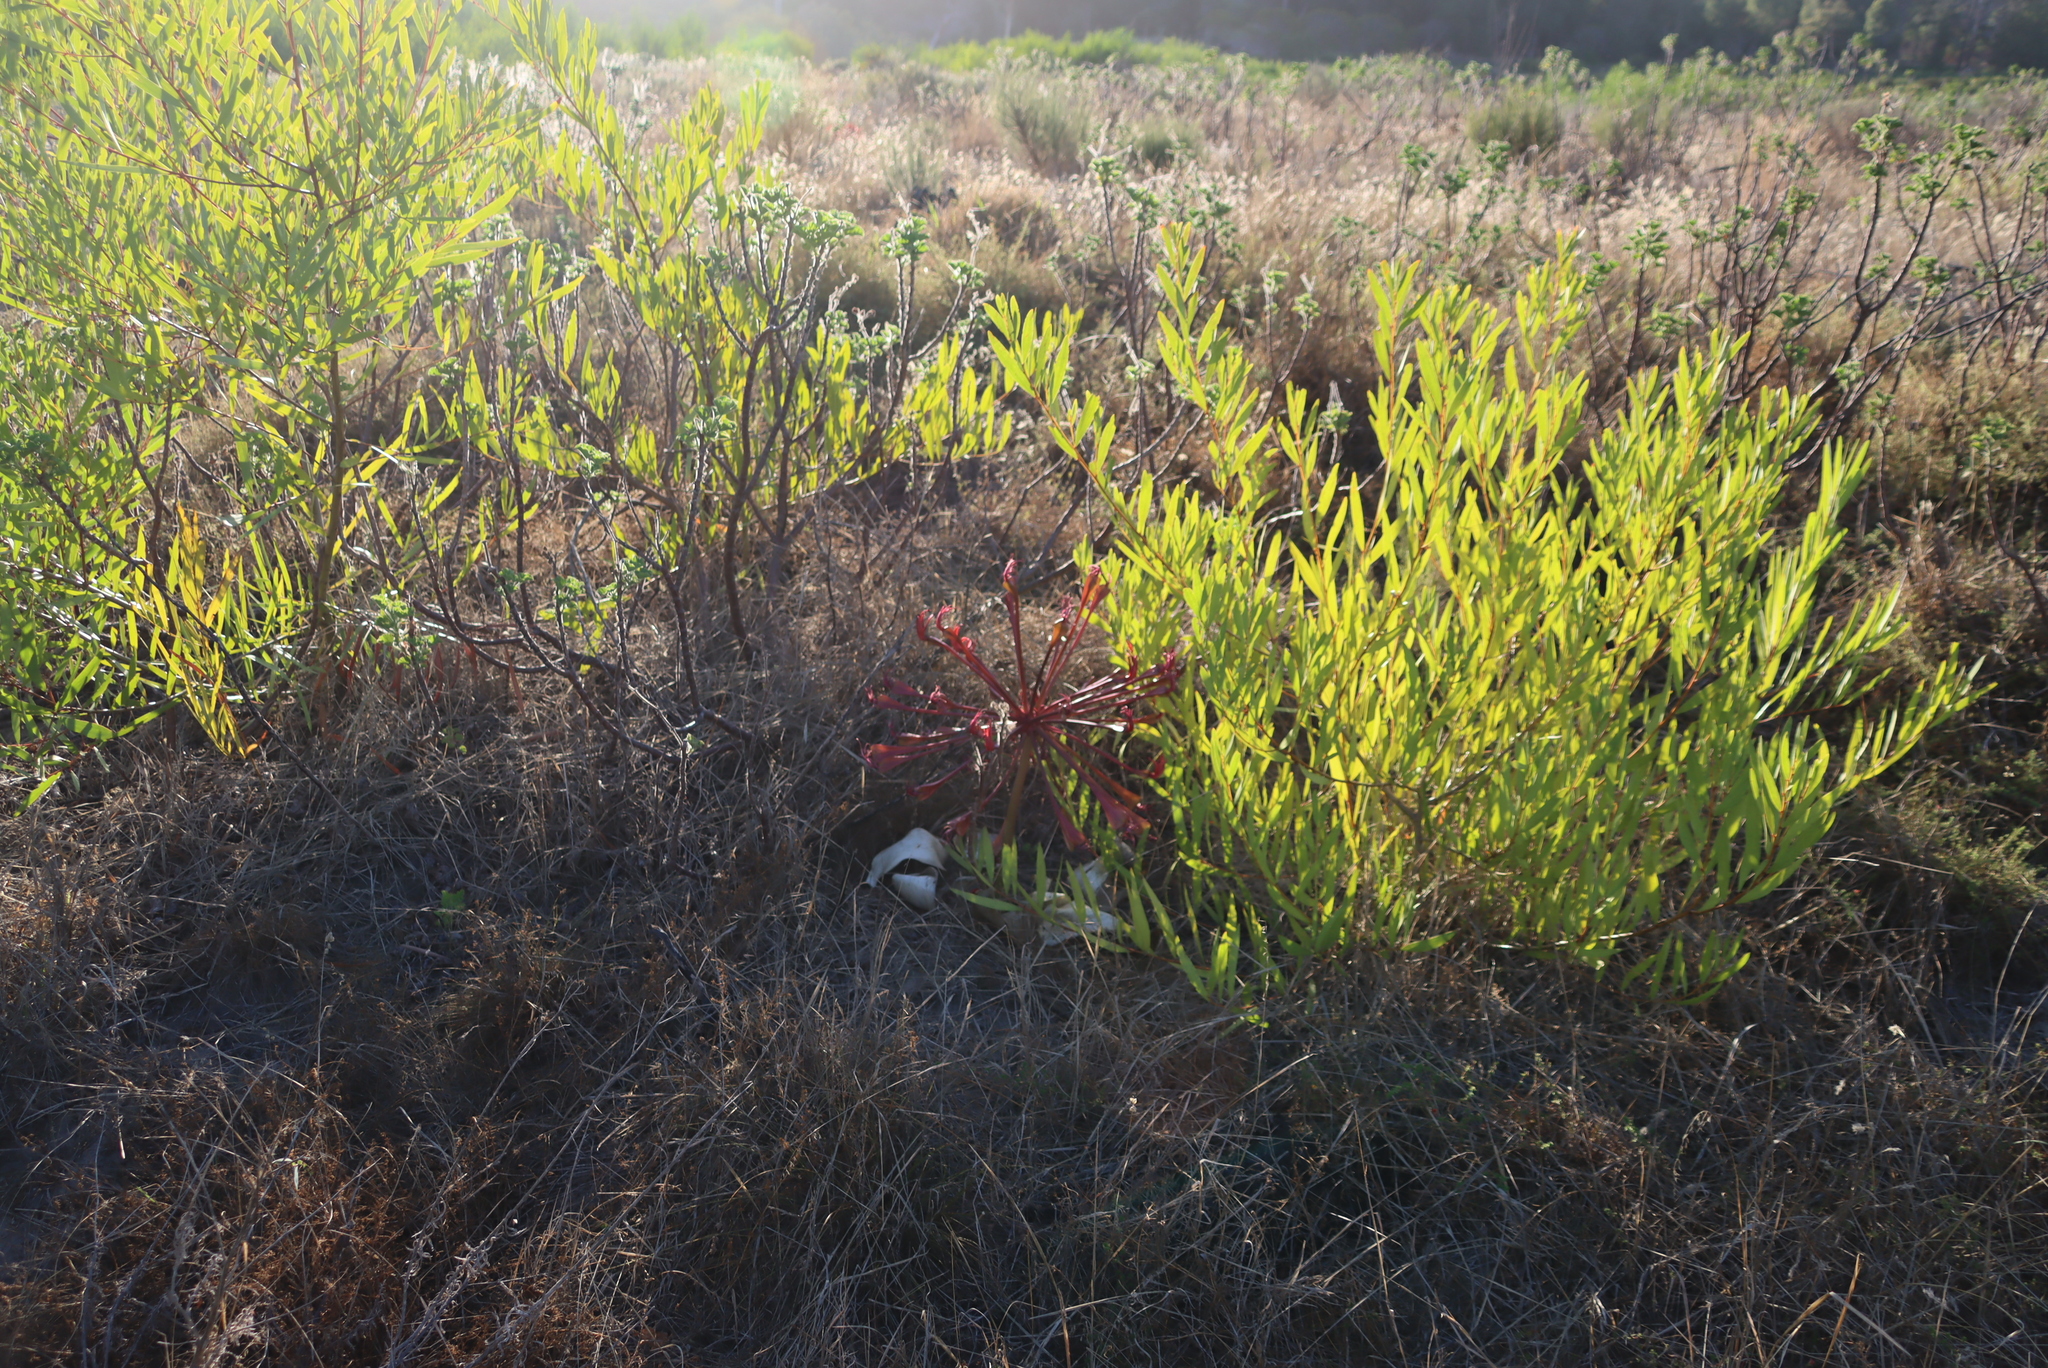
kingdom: Plantae
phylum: Tracheophyta
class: Magnoliopsida
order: Fabales
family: Fabaceae
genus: Acacia
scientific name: Acacia longifolia
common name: Sydney golden wattle
